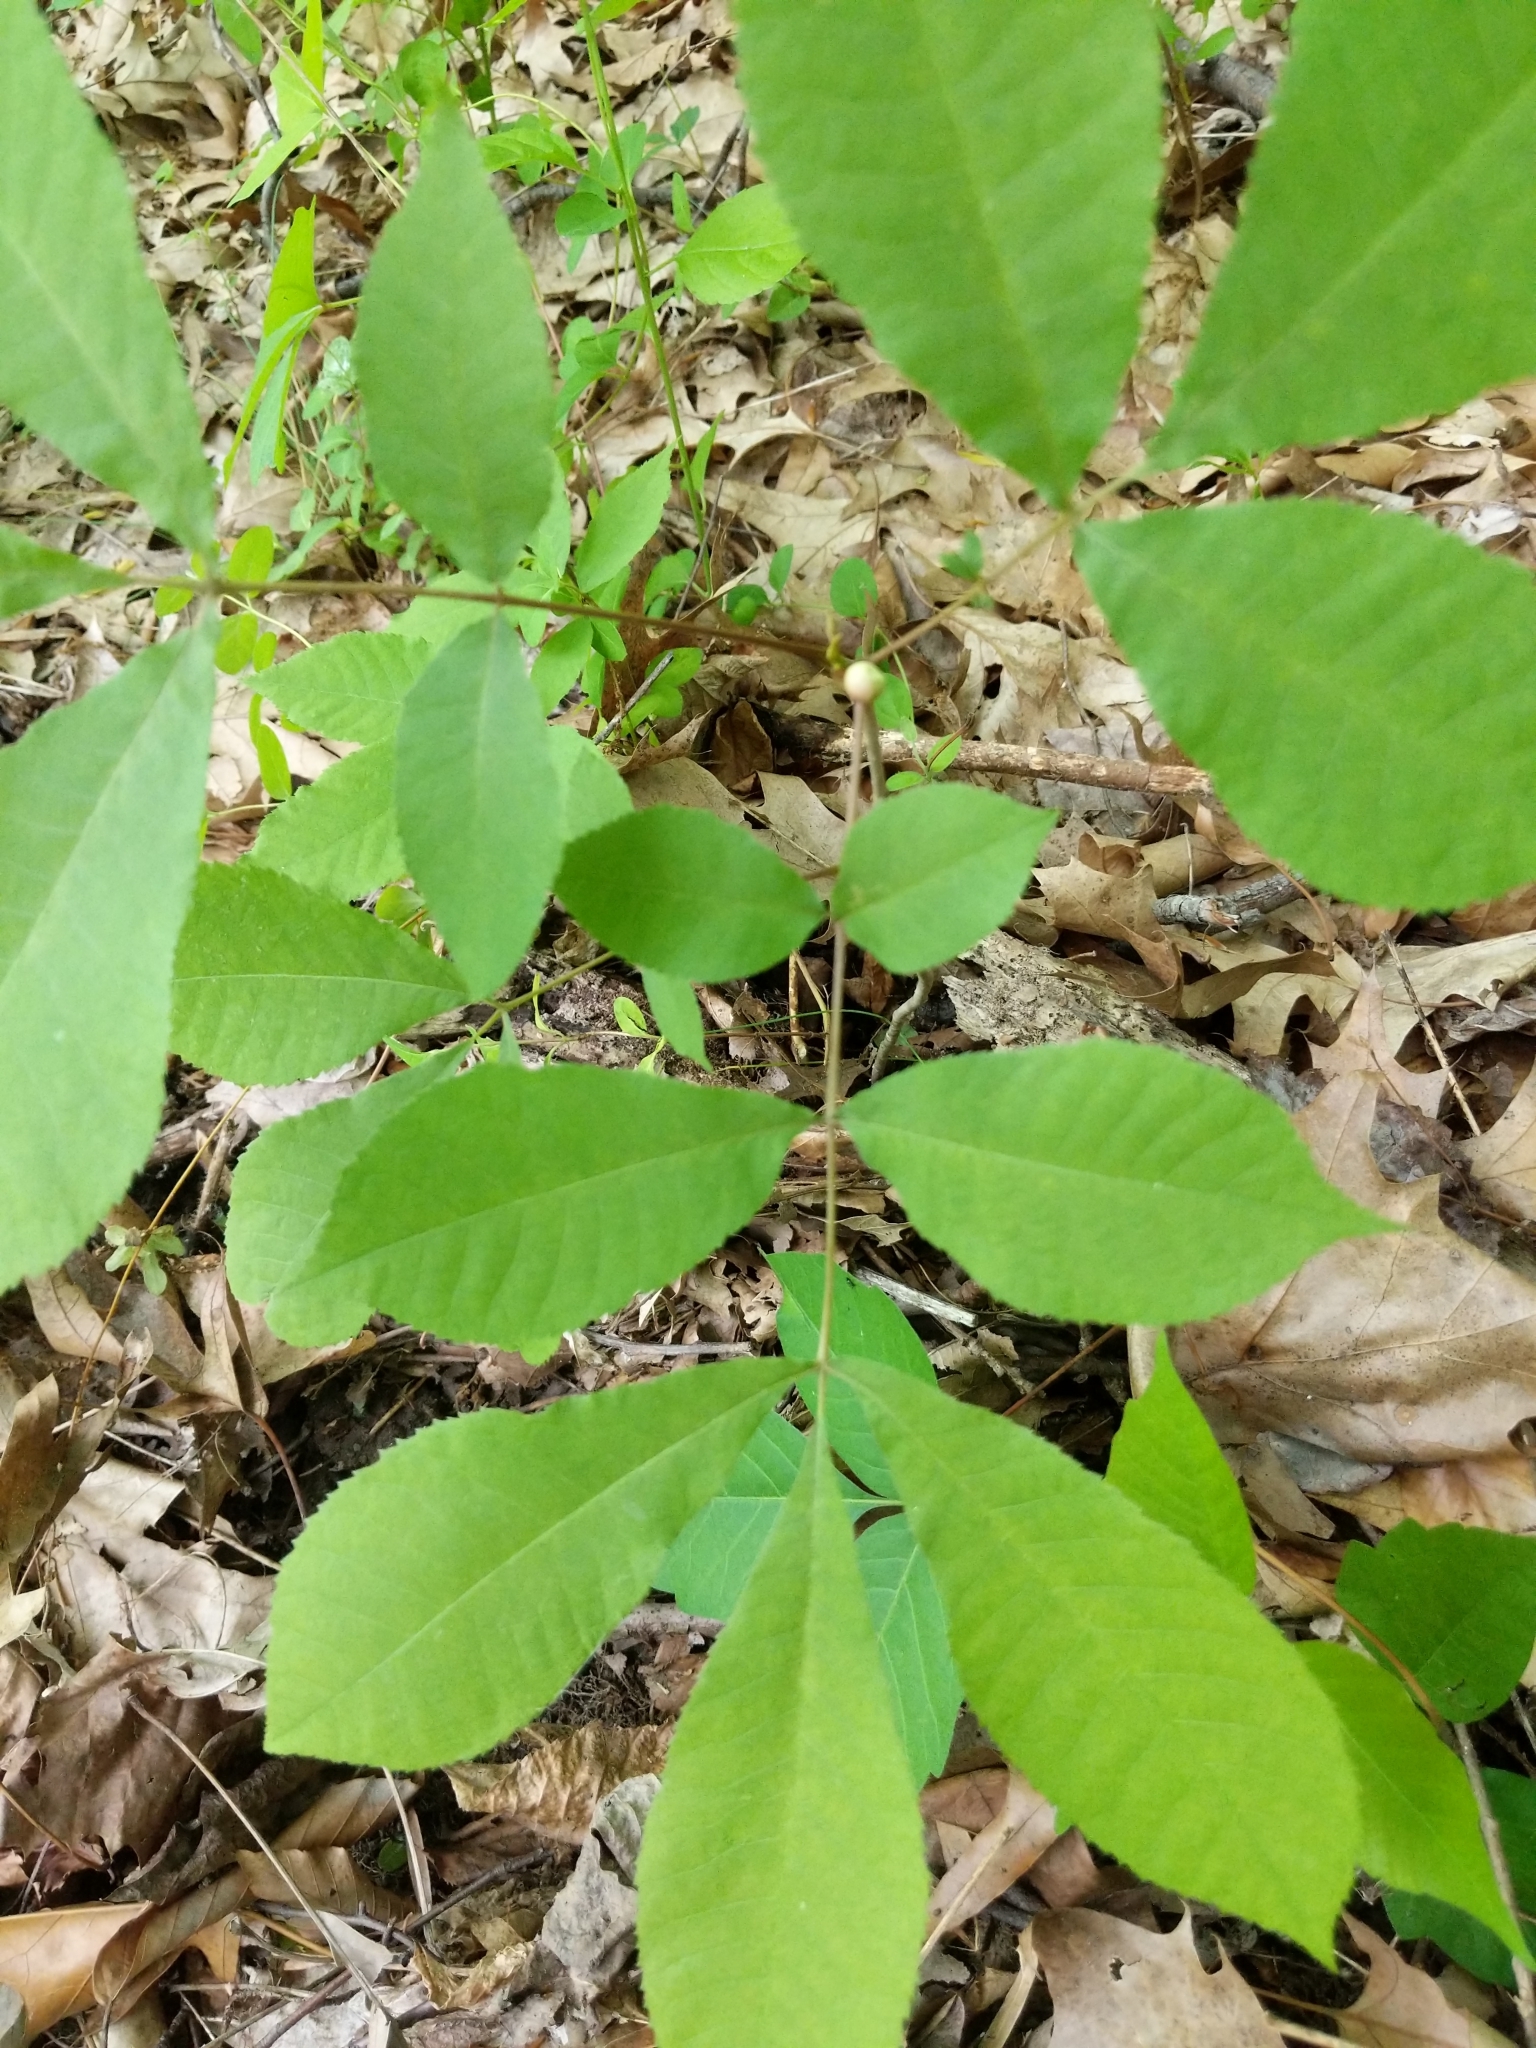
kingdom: Animalia
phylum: Arthropoda
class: Insecta
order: Hemiptera
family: Phylloxeridae
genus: Phylloxera
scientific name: Phylloxera
